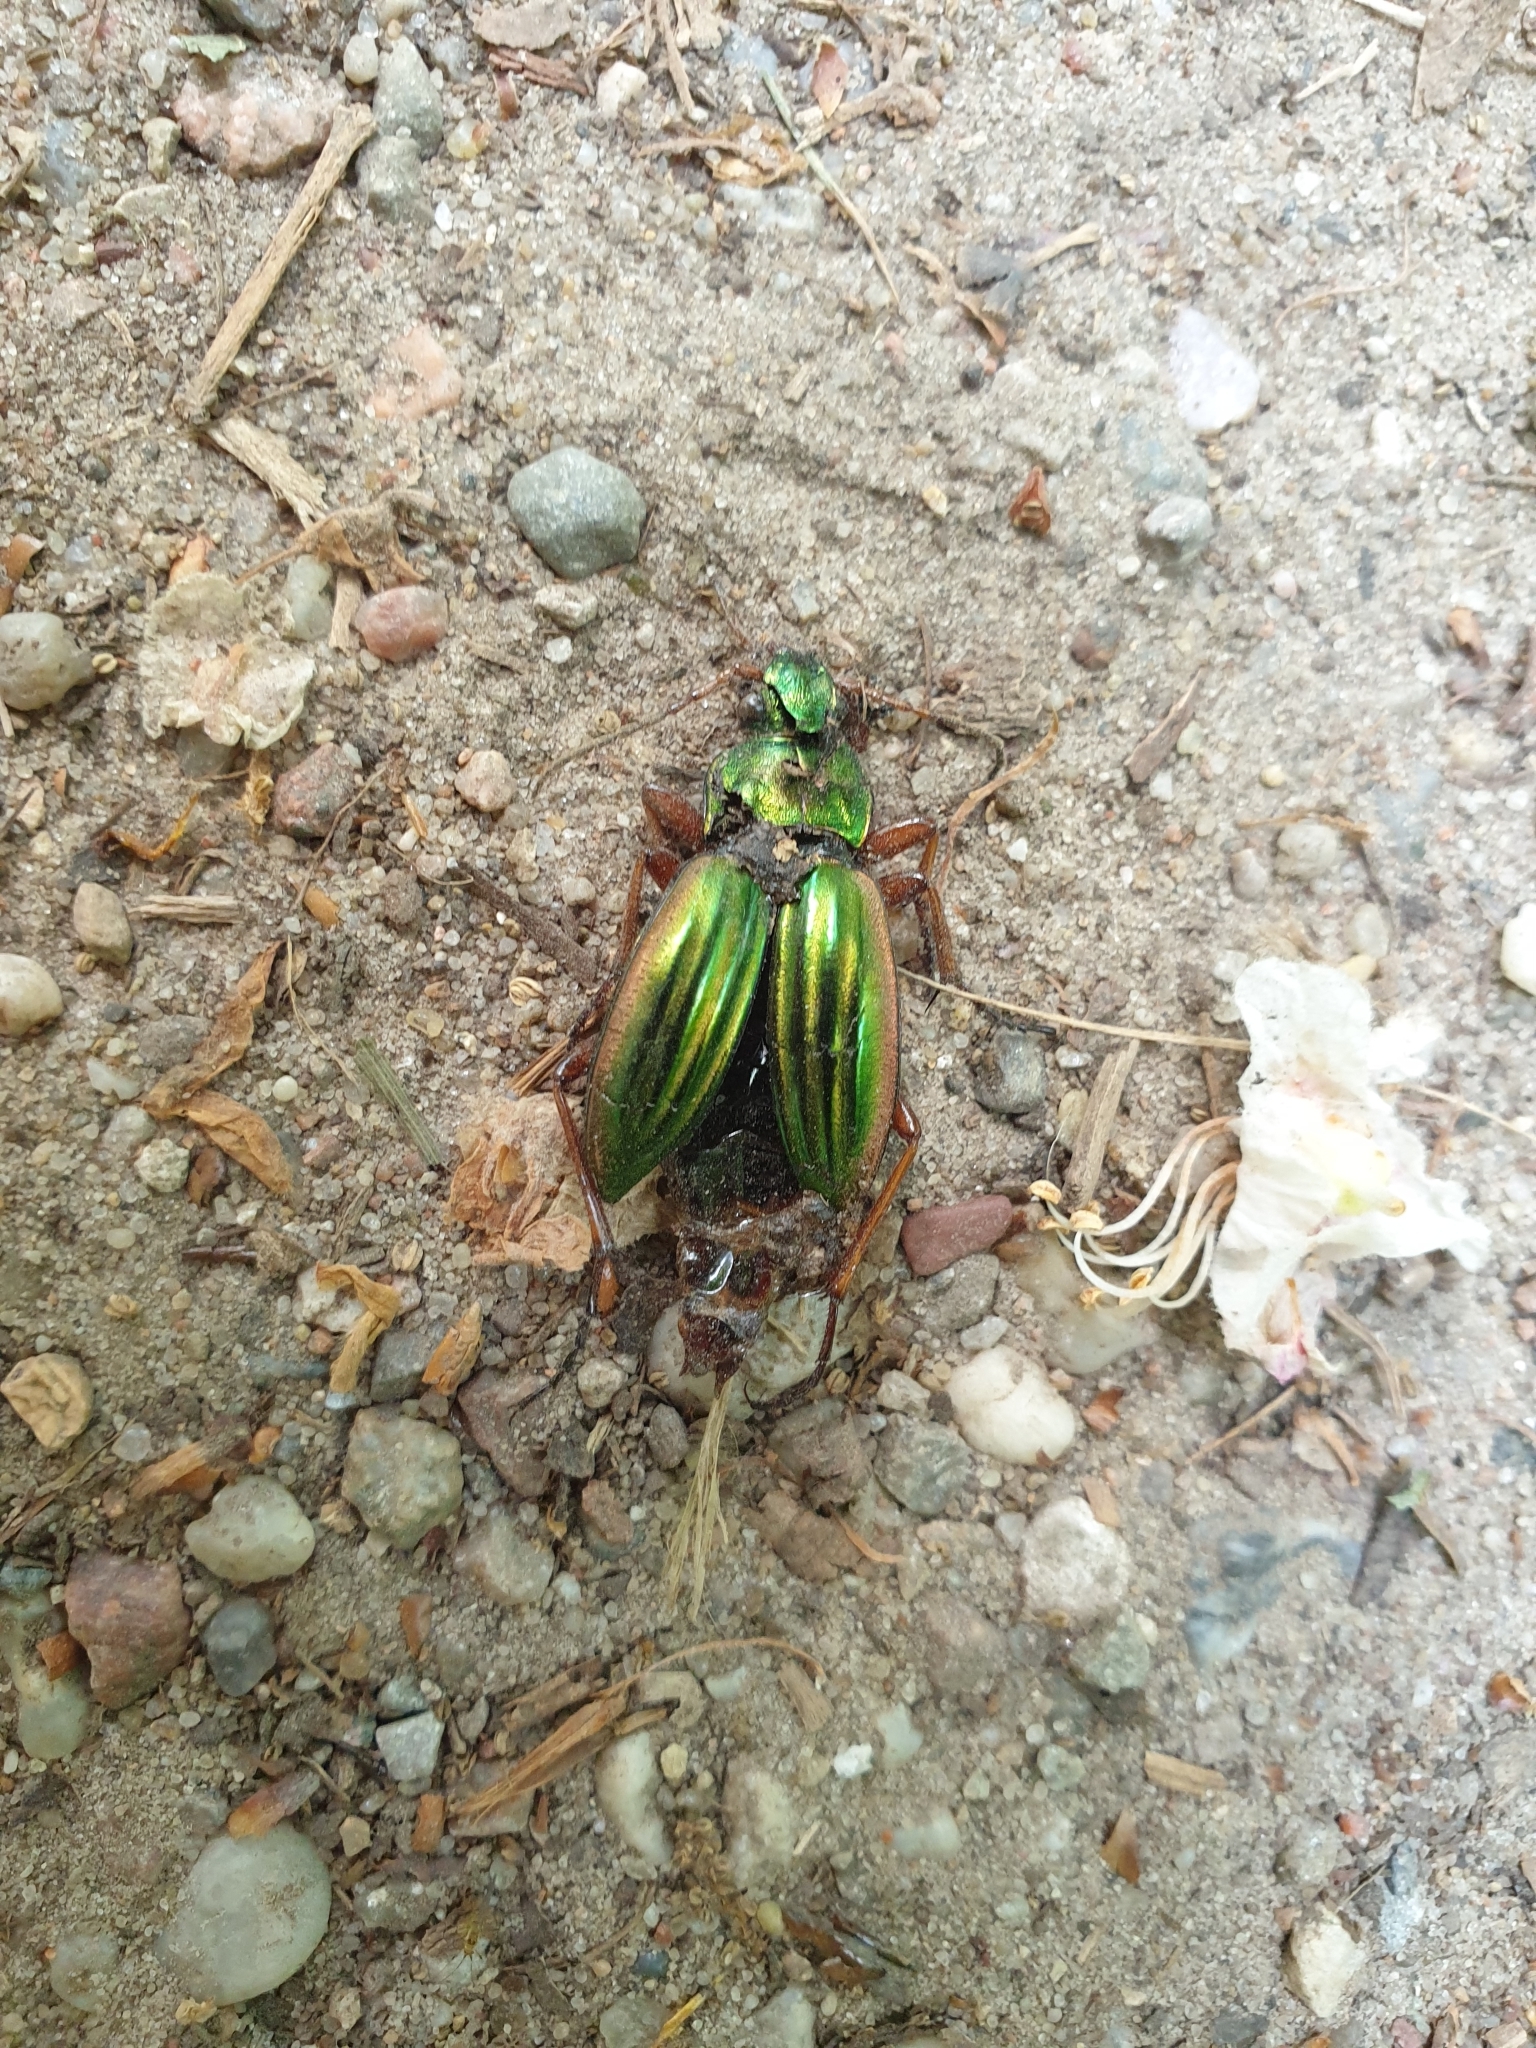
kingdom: Animalia
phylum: Arthropoda
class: Insecta
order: Coleoptera
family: Carabidae
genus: Carabus
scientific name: Carabus auratus
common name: Golden ground beetle
